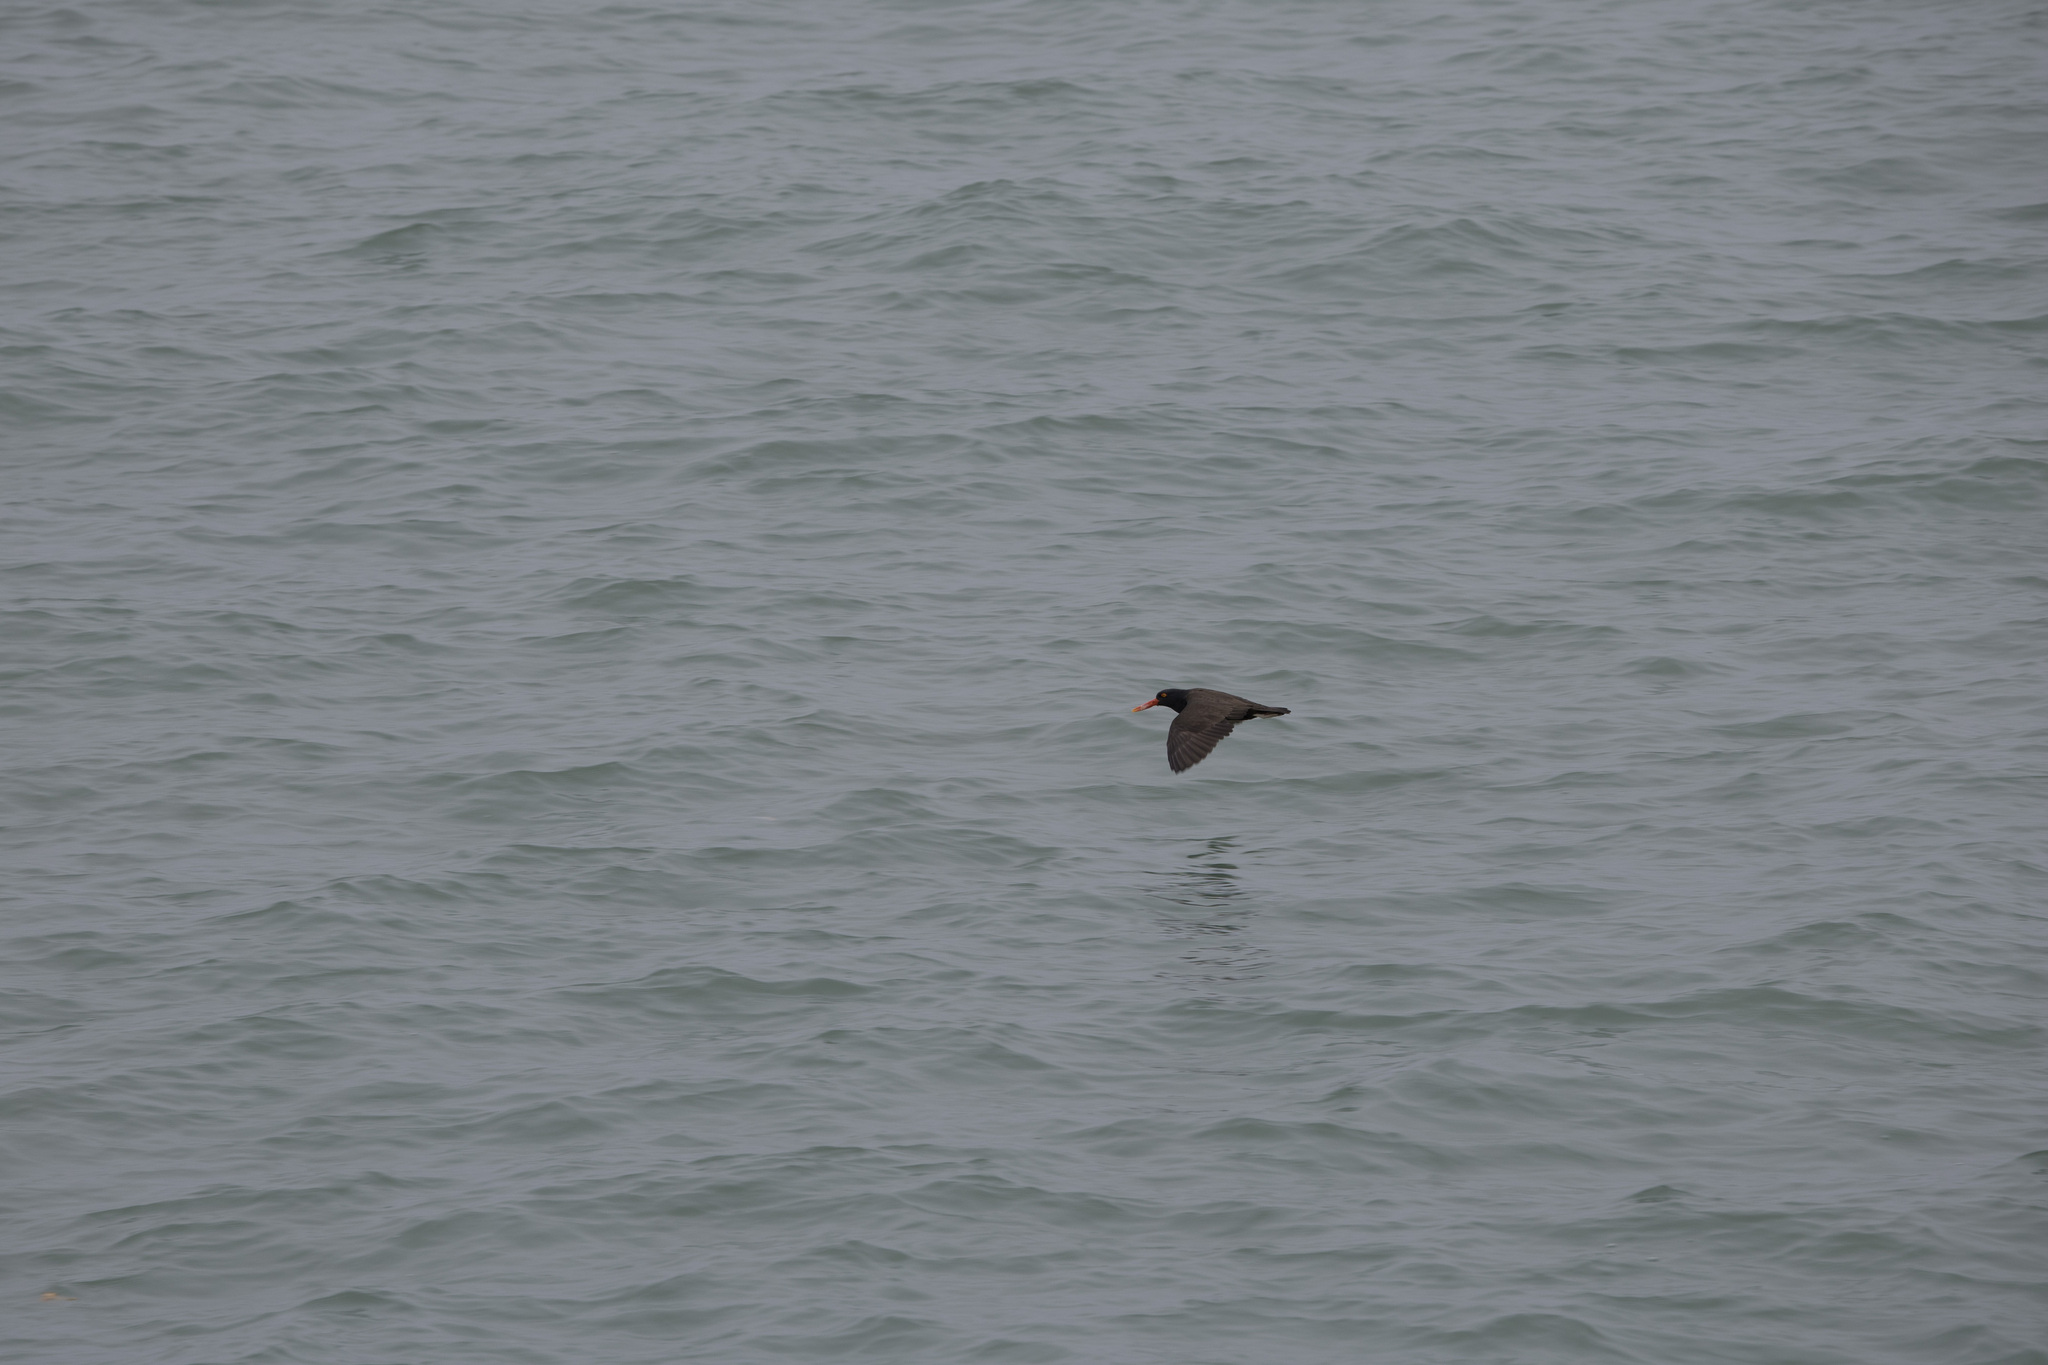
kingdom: Animalia
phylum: Chordata
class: Aves
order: Charadriiformes
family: Haematopodidae
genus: Haematopus
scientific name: Haematopus ater
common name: Blackish oystercatcher
